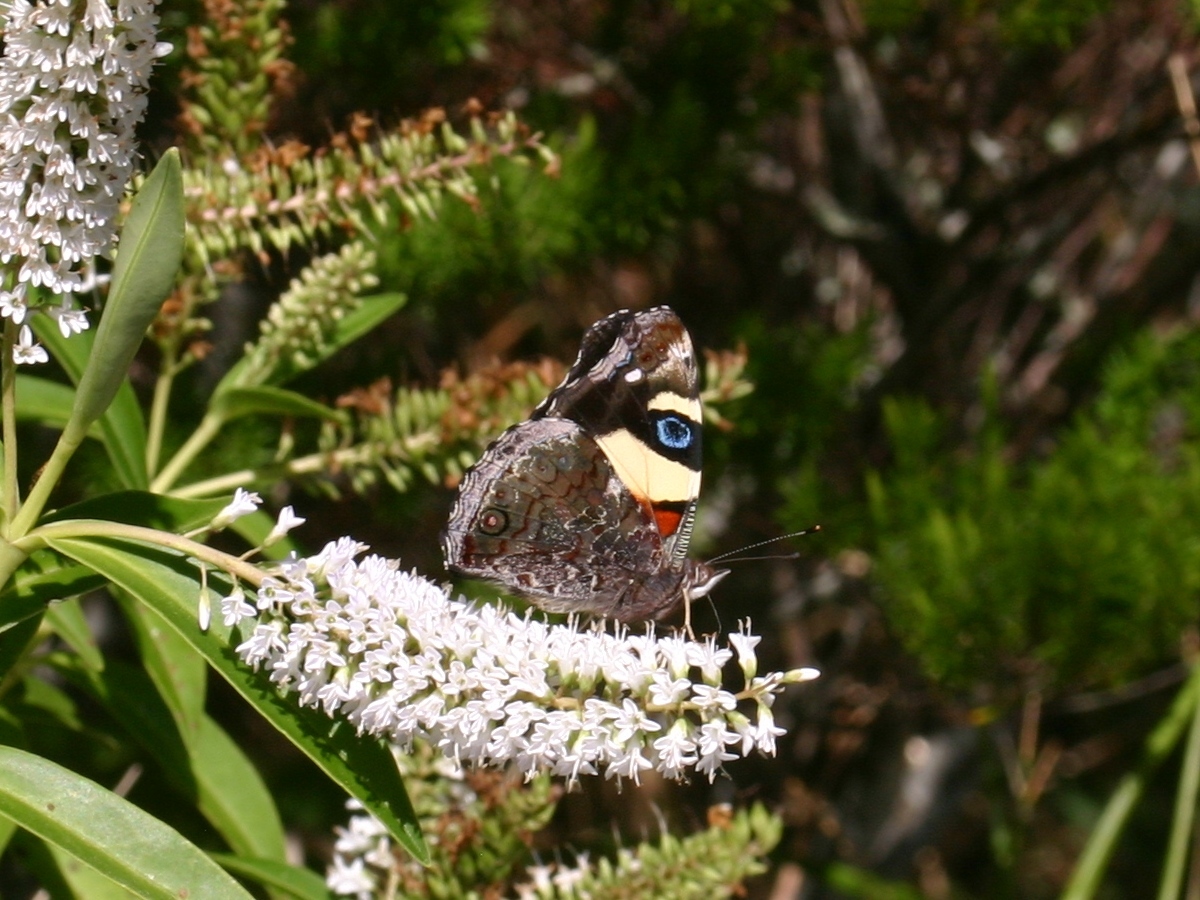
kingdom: Animalia
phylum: Arthropoda
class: Insecta
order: Lepidoptera
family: Nymphalidae
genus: Vanessa
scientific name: Vanessa itea
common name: Yellow admiral
